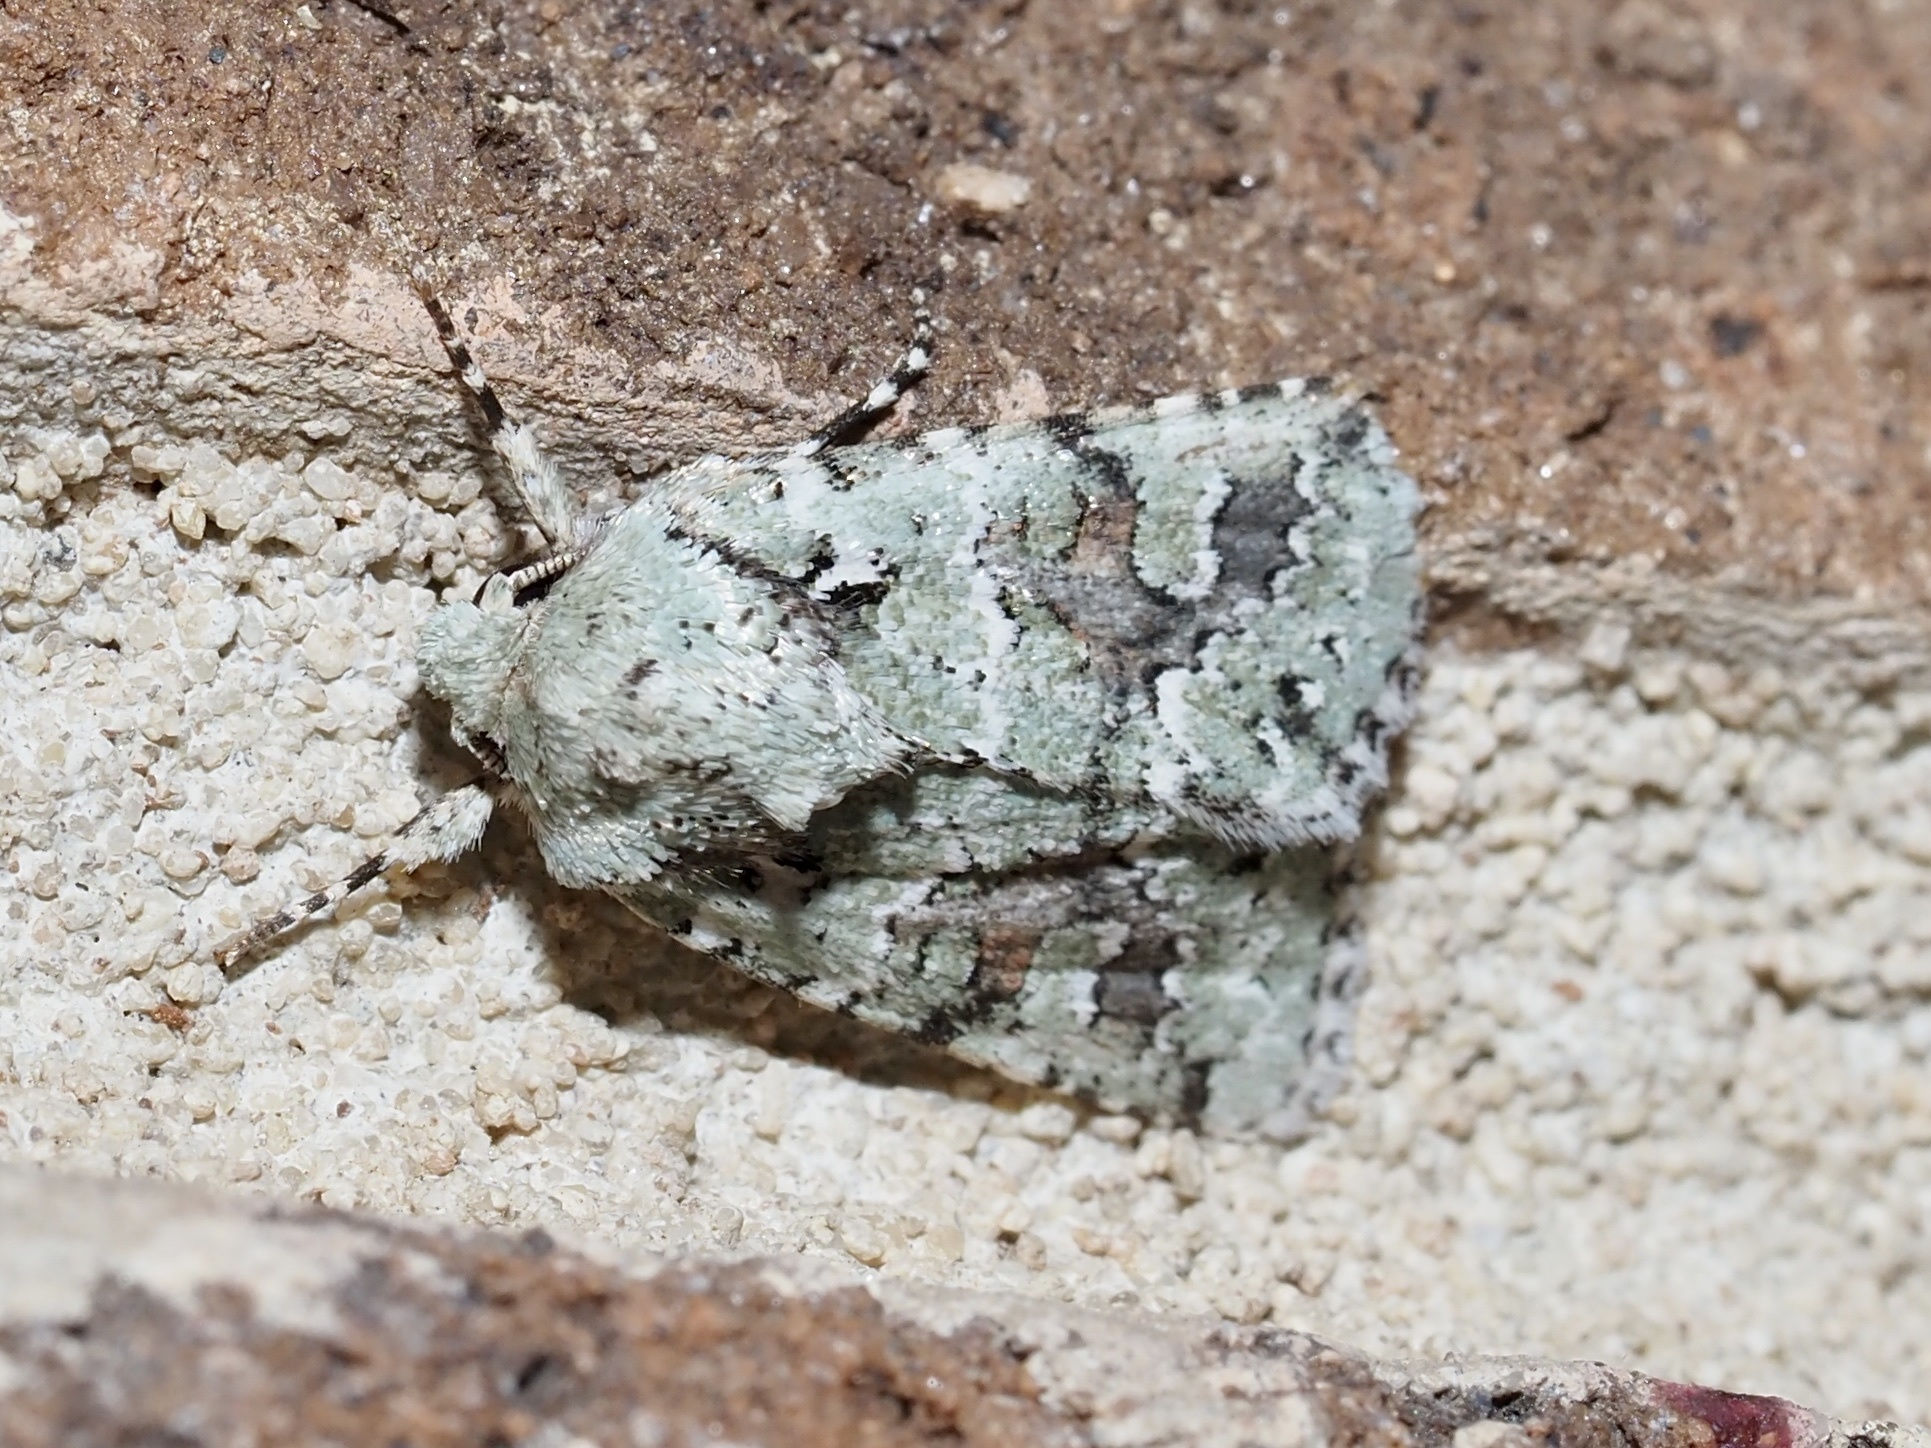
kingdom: Animalia
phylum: Arthropoda
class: Insecta
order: Lepidoptera
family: Noctuidae
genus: Lacinipolia
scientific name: Lacinipolia laudabilis
